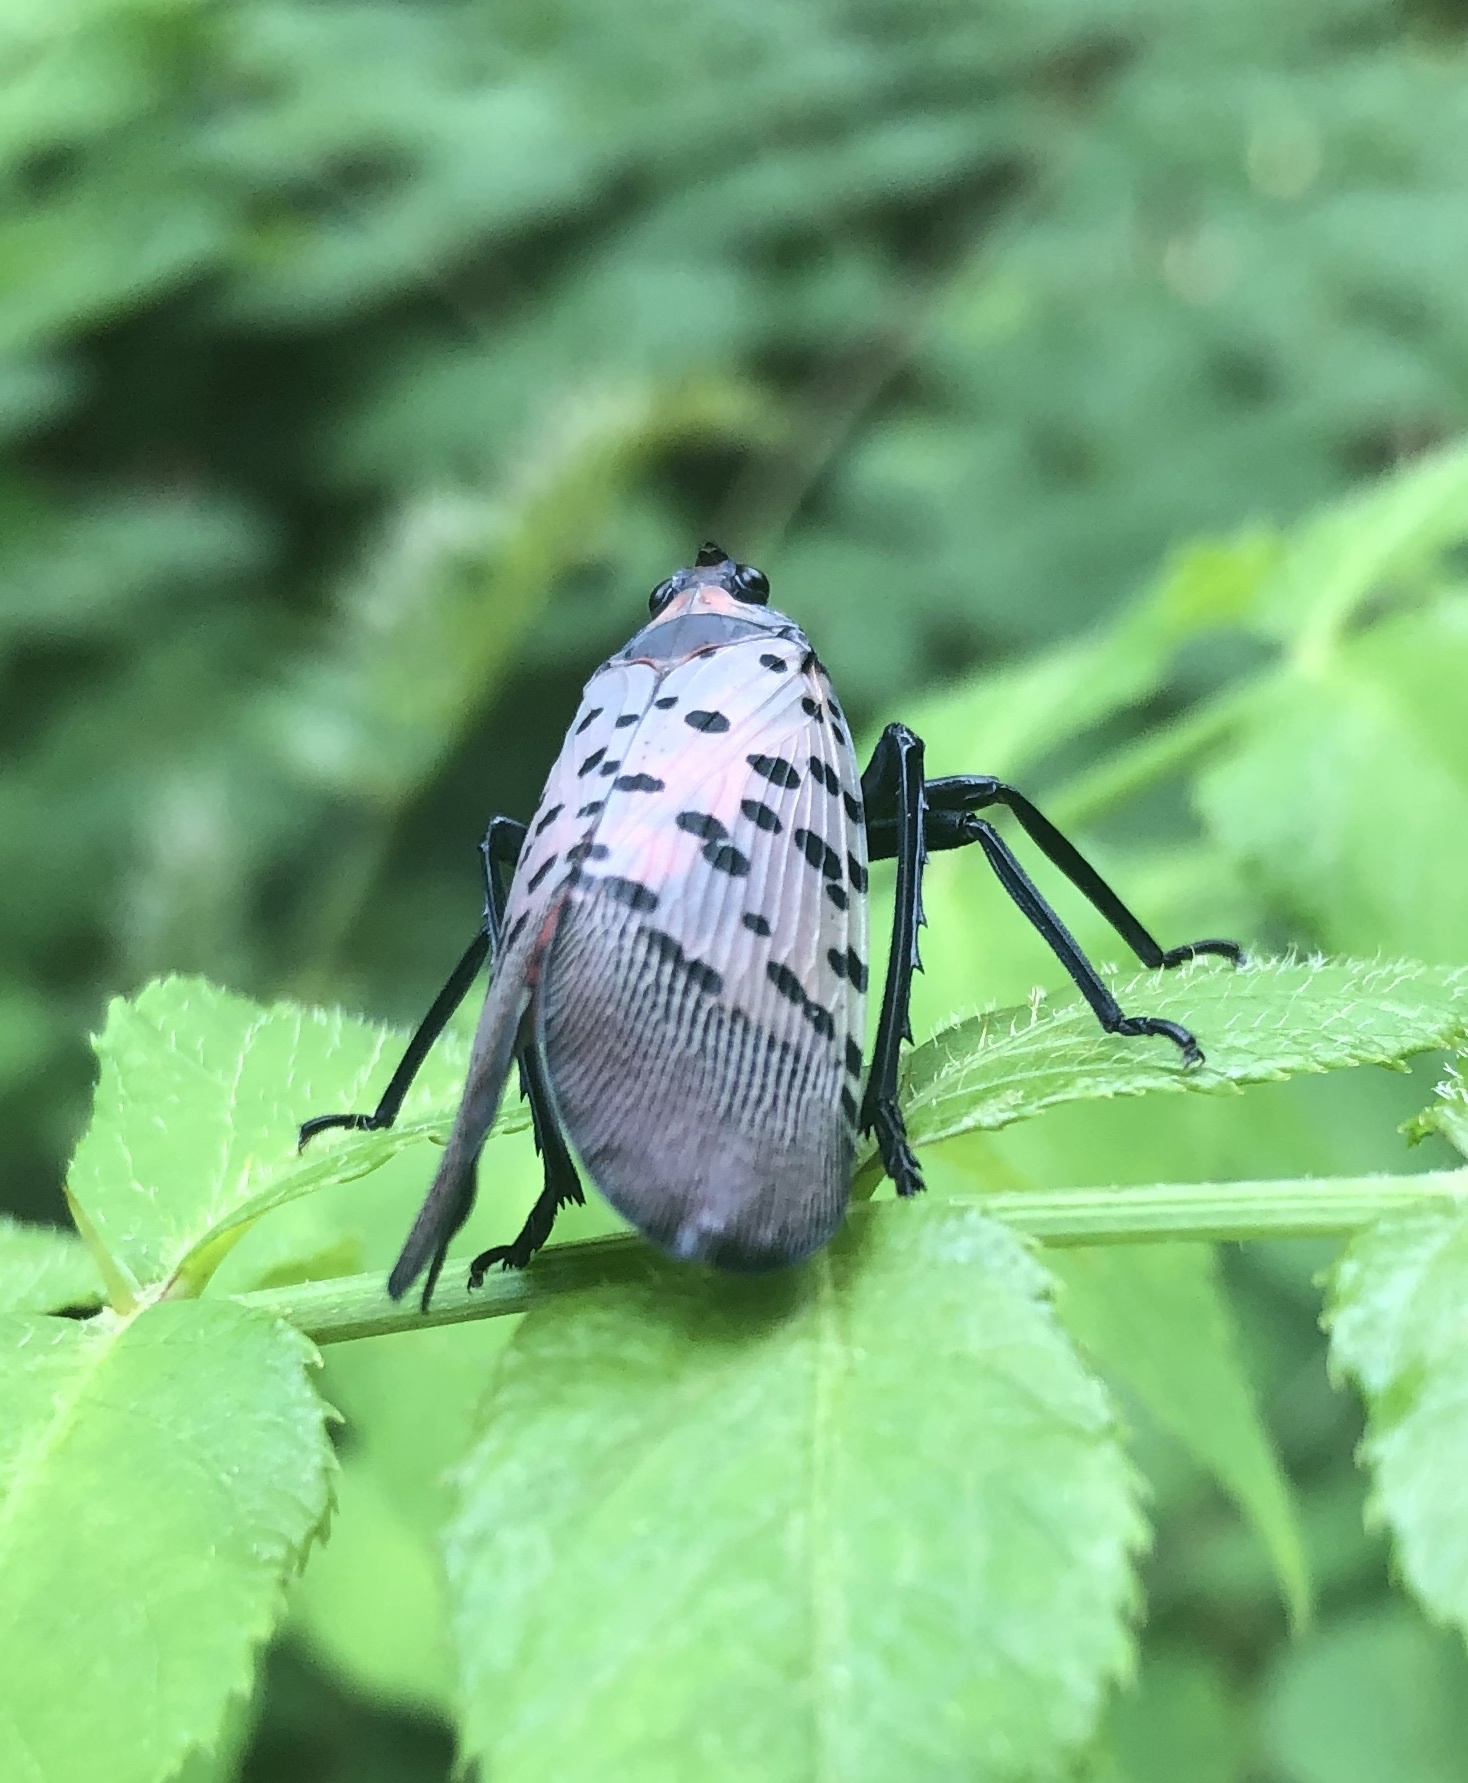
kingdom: Animalia
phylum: Arthropoda
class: Insecta
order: Hemiptera
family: Fulgoridae
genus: Lycorma
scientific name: Lycorma delicatula
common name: Spotted lanternfly
